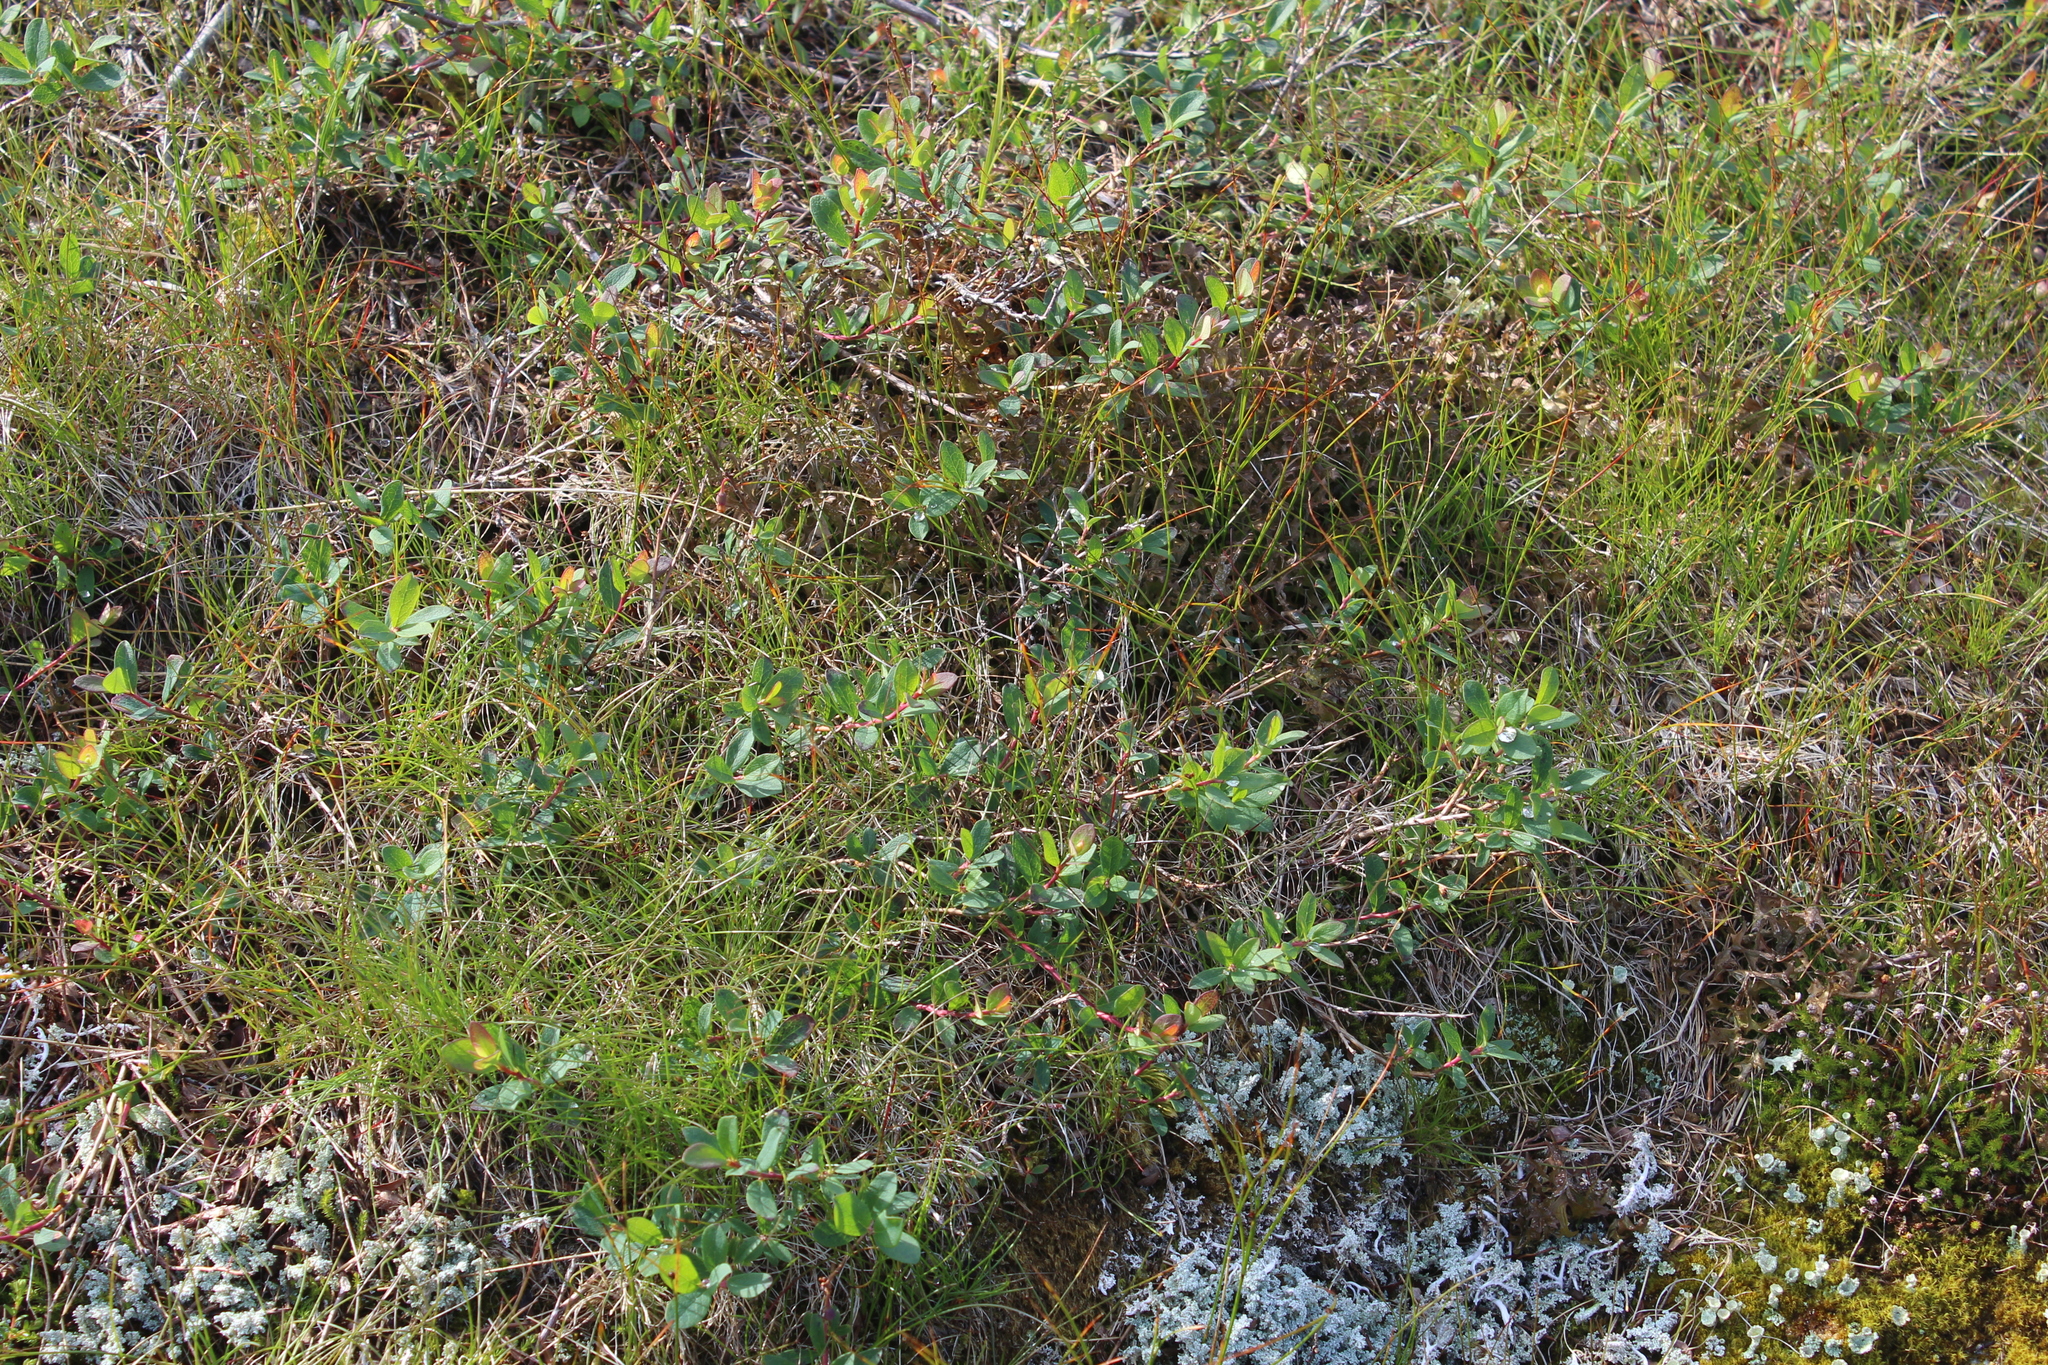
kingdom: Plantae
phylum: Tracheophyta
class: Magnoliopsida
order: Ericales
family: Ericaceae
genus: Vaccinium
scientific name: Vaccinium uliginosum
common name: Bog bilberry
